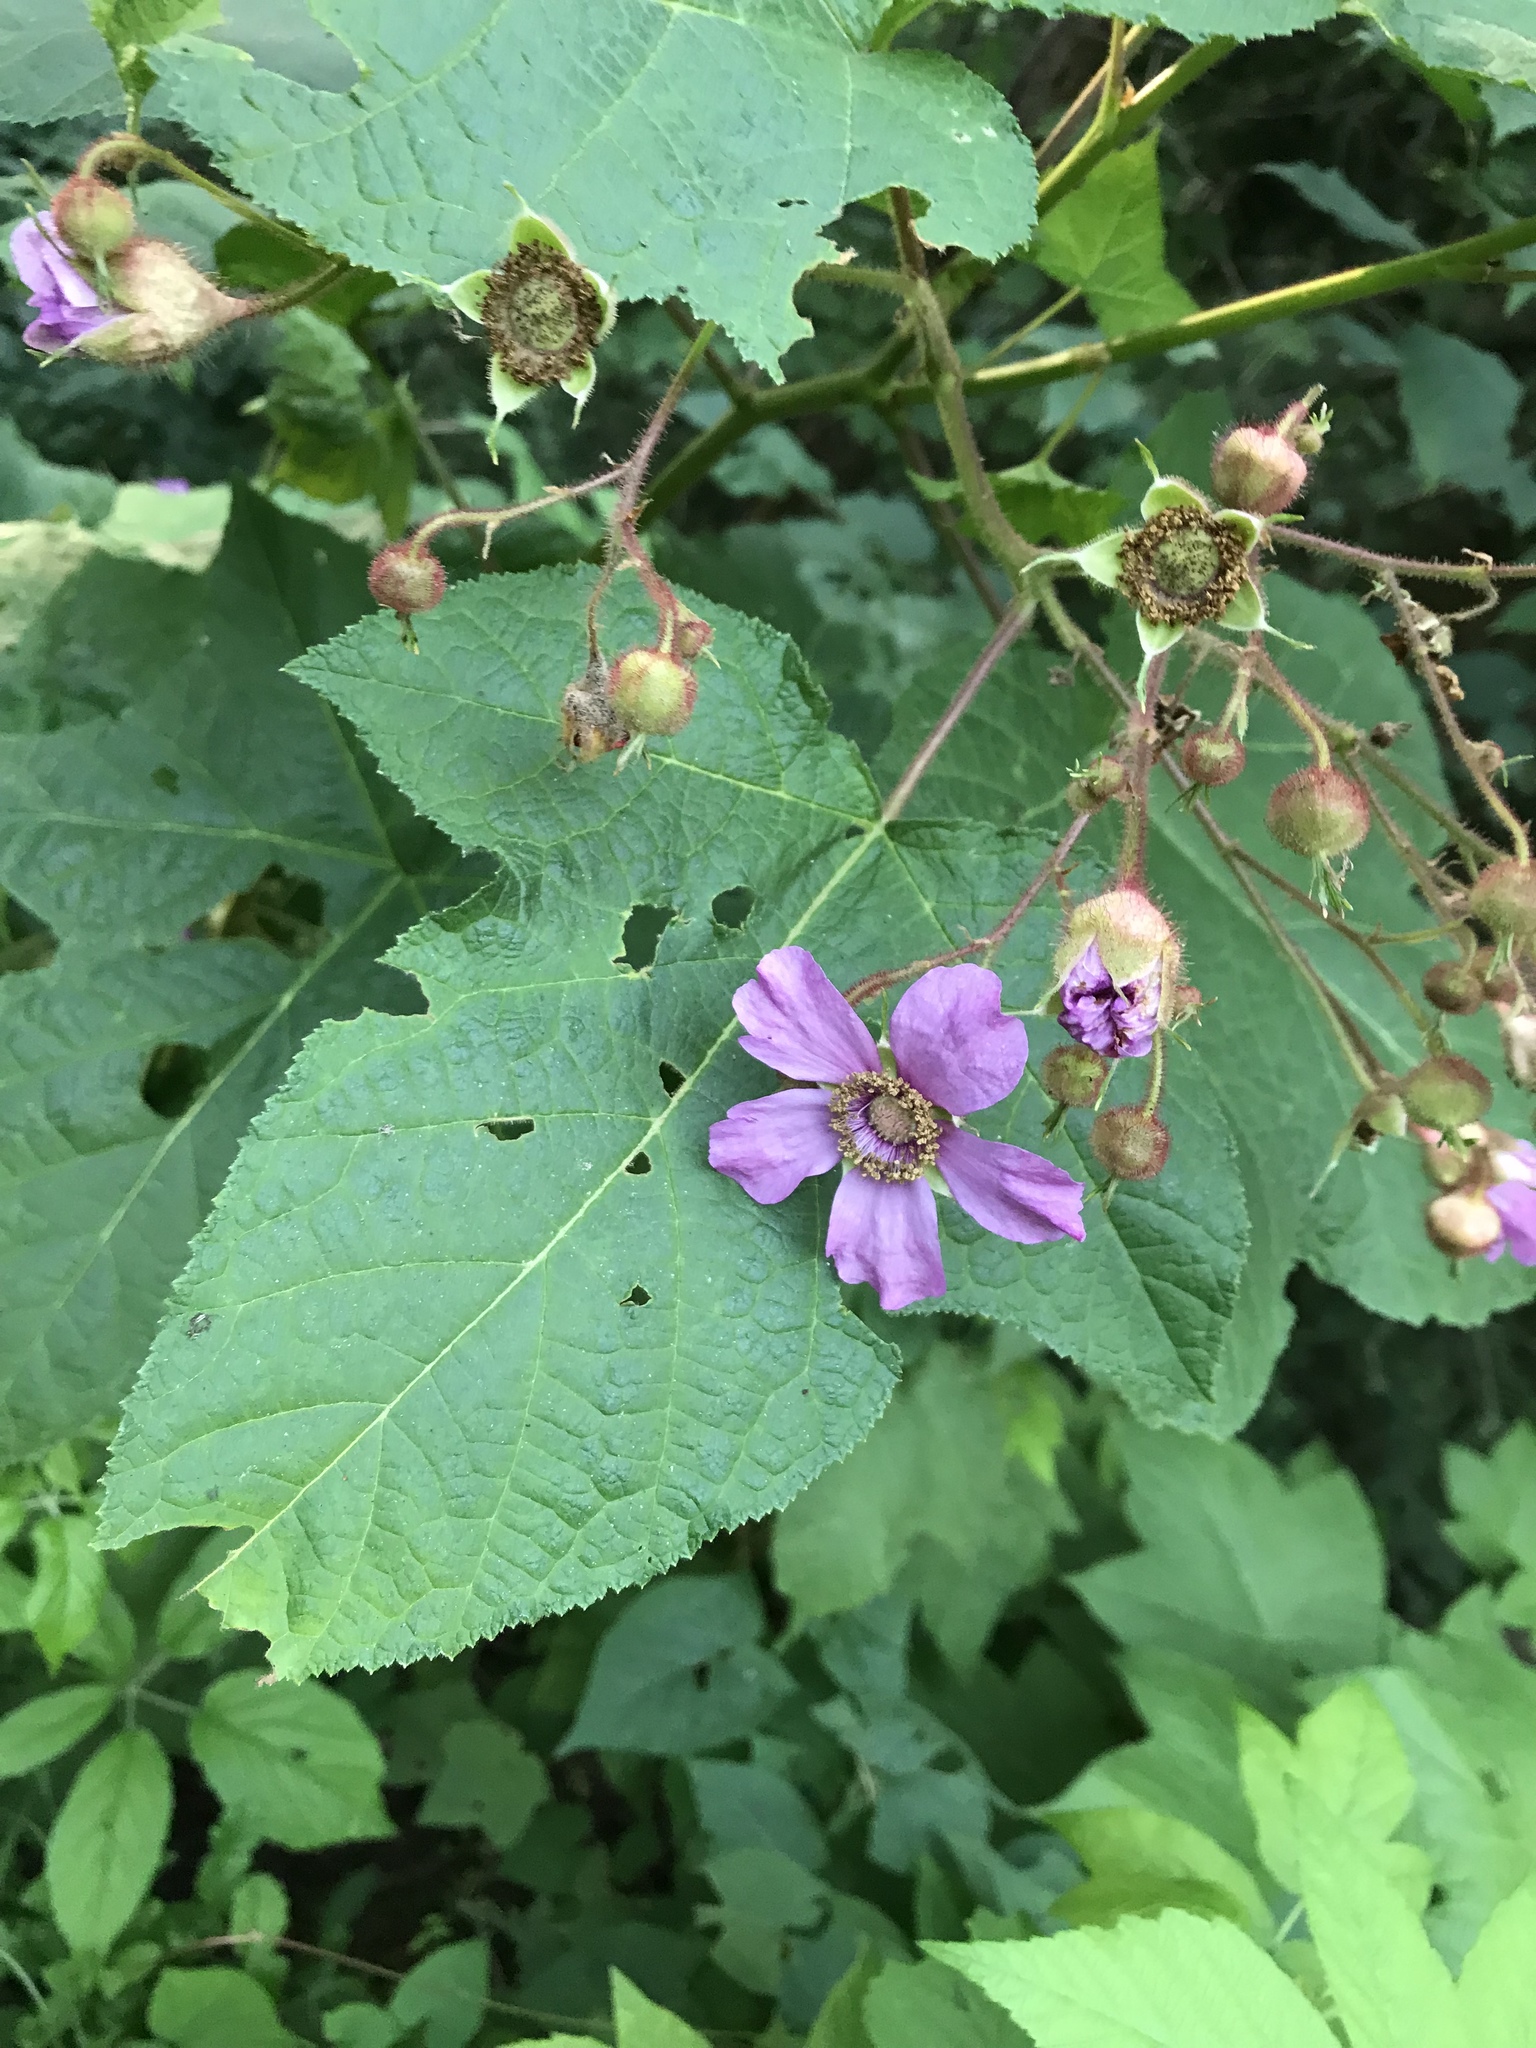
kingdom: Plantae
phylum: Tracheophyta
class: Magnoliopsida
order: Rosales
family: Rosaceae
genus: Rubus
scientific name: Rubus odoratus
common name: Purple-flowered raspberry
